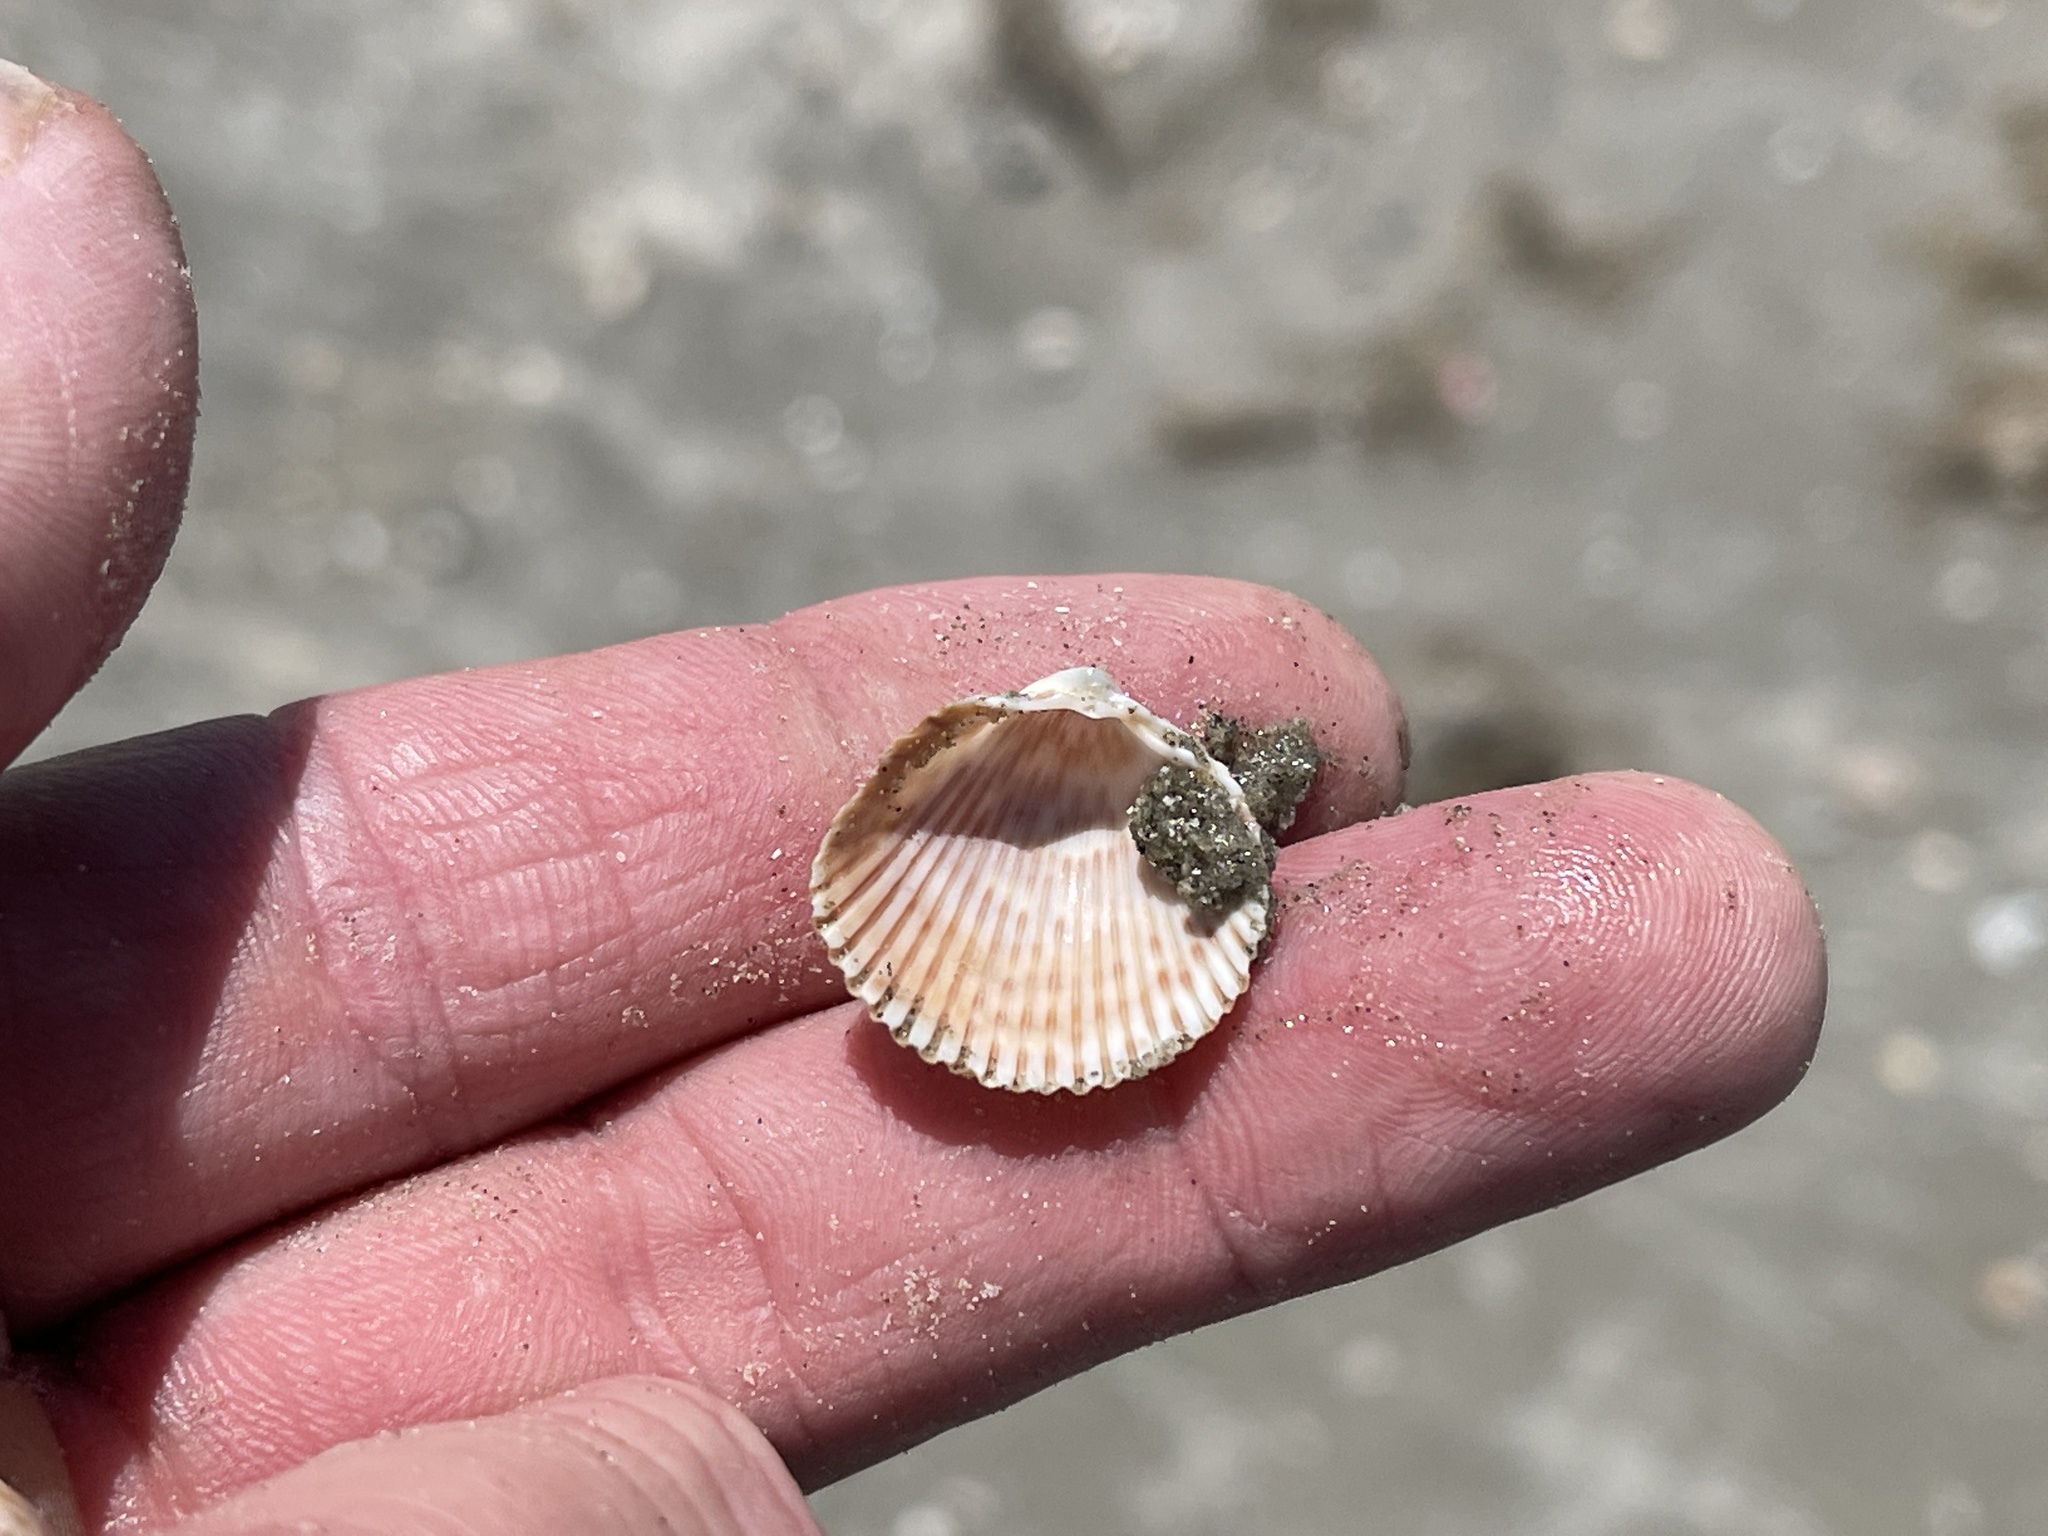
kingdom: Animalia
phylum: Mollusca
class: Bivalvia
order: Cardiida
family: Cardiidae
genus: Dinocardium
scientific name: Dinocardium robustum
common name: Atlantic giant cockle
